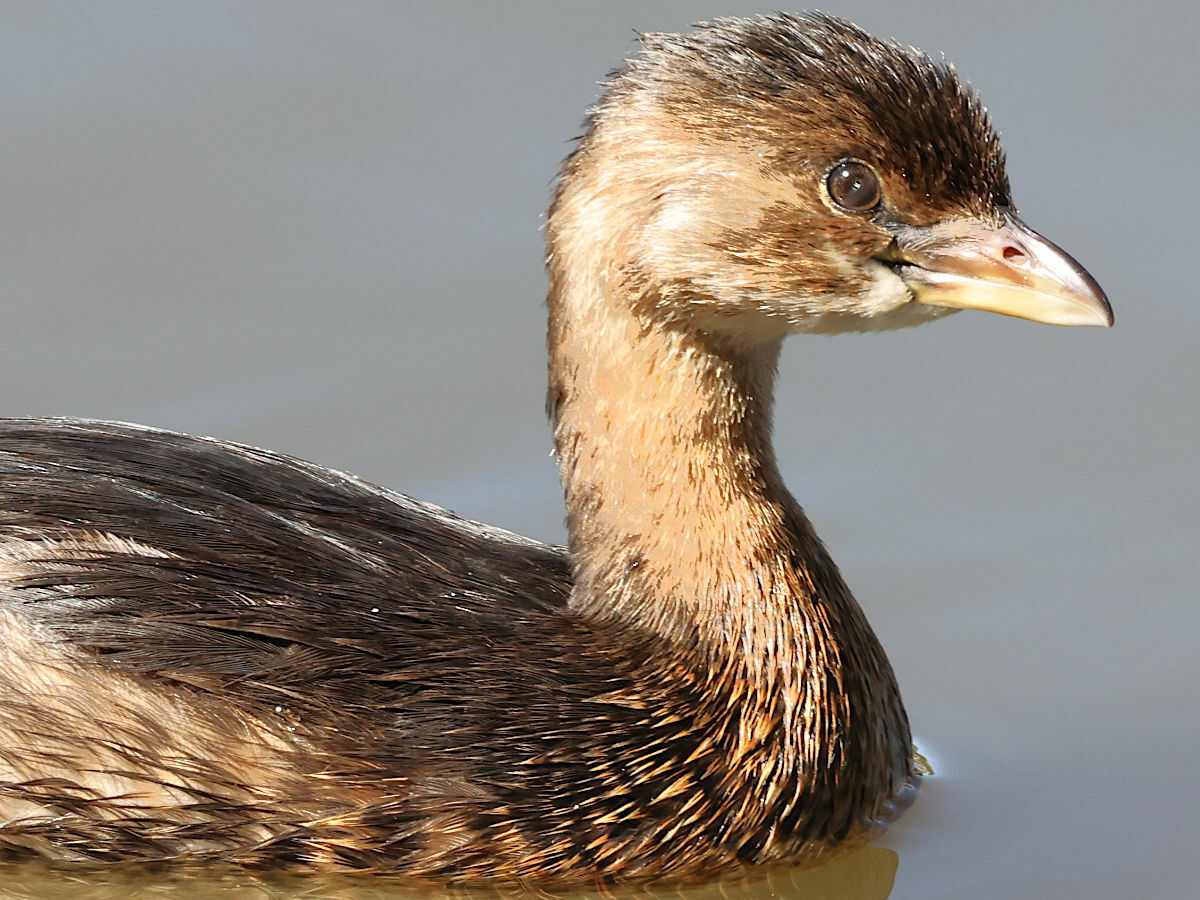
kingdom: Animalia
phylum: Chordata
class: Aves
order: Podicipediformes
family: Podicipedidae
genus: Podilymbus
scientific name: Podilymbus podiceps
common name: Pied-billed grebe
